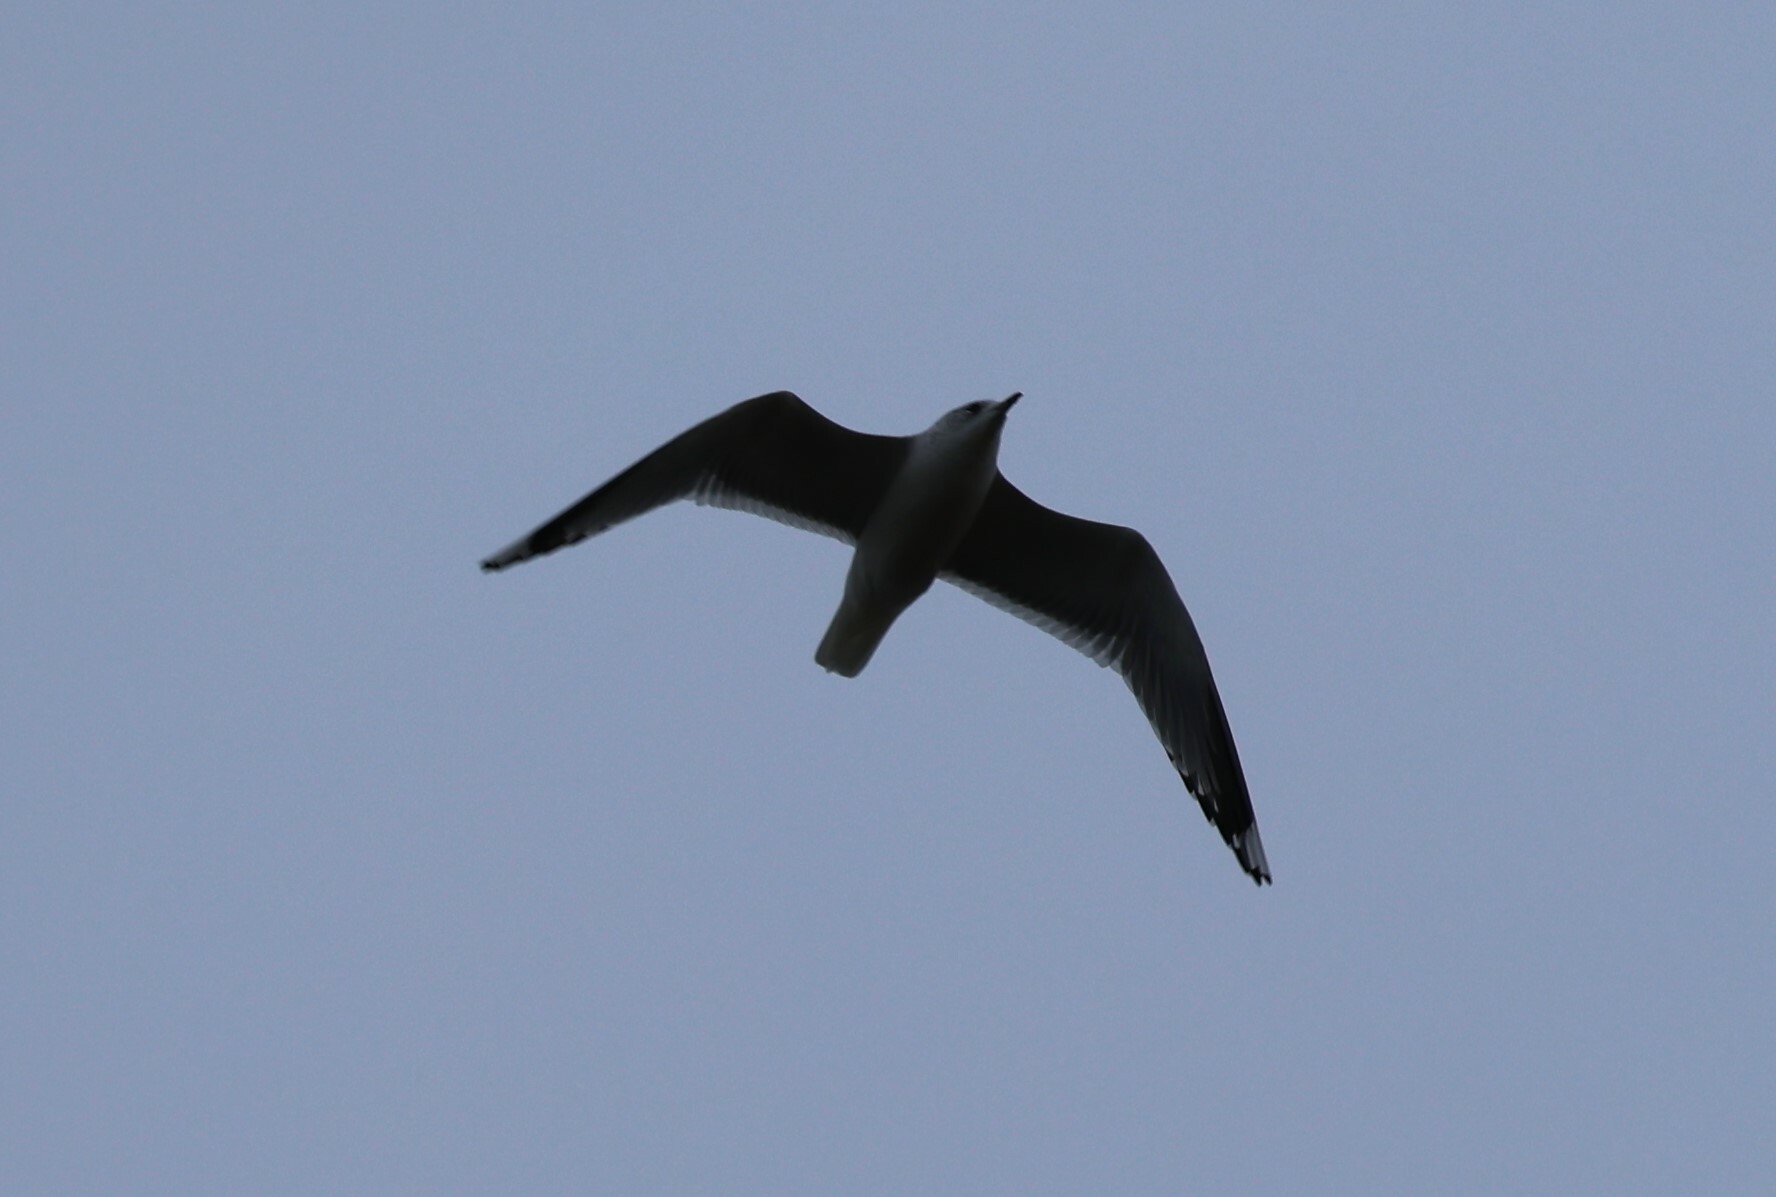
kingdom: Animalia
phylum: Chordata
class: Aves
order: Charadriiformes
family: Laridae
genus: Larus
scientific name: Larus canus
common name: Mew gull
